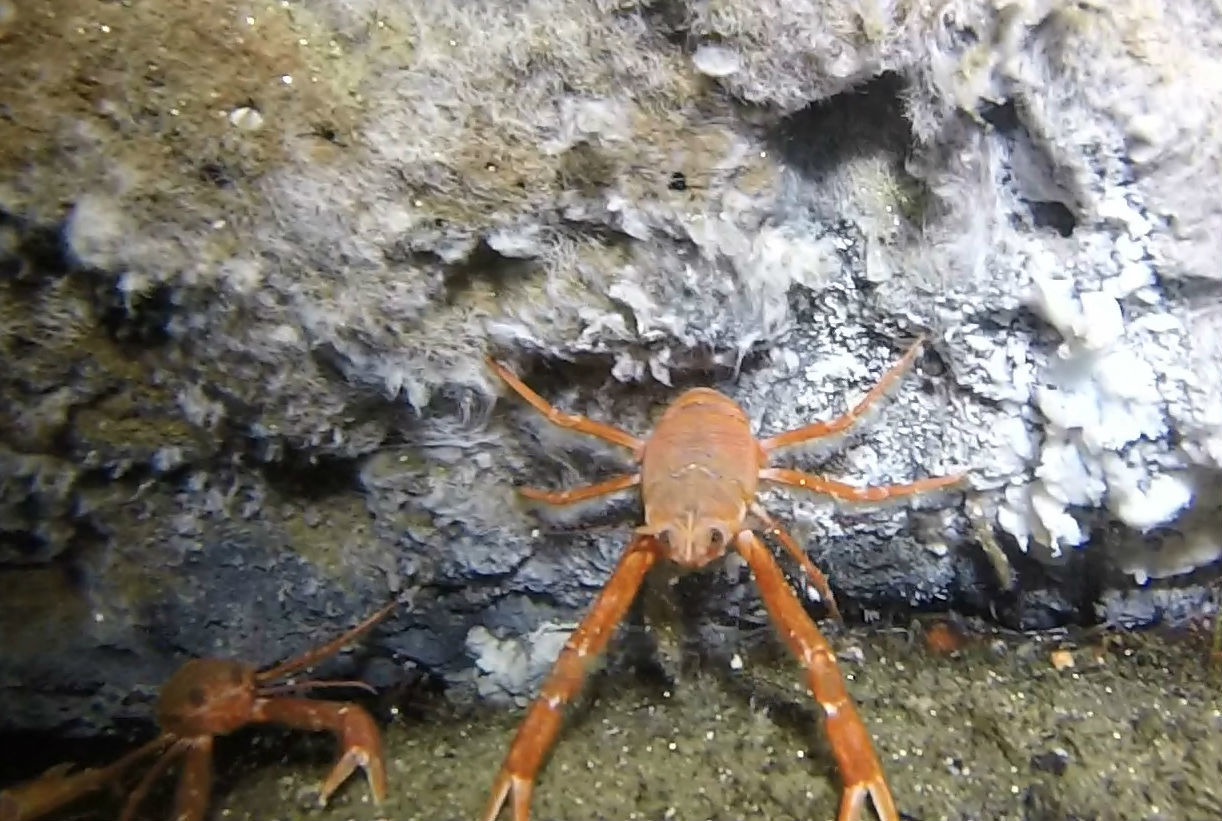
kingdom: Animalia
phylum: Arthropoda
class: Malacostraca
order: Decapoda
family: Munididae
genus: Grimothea
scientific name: Grimothea planipes
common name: Pelagic red crab
